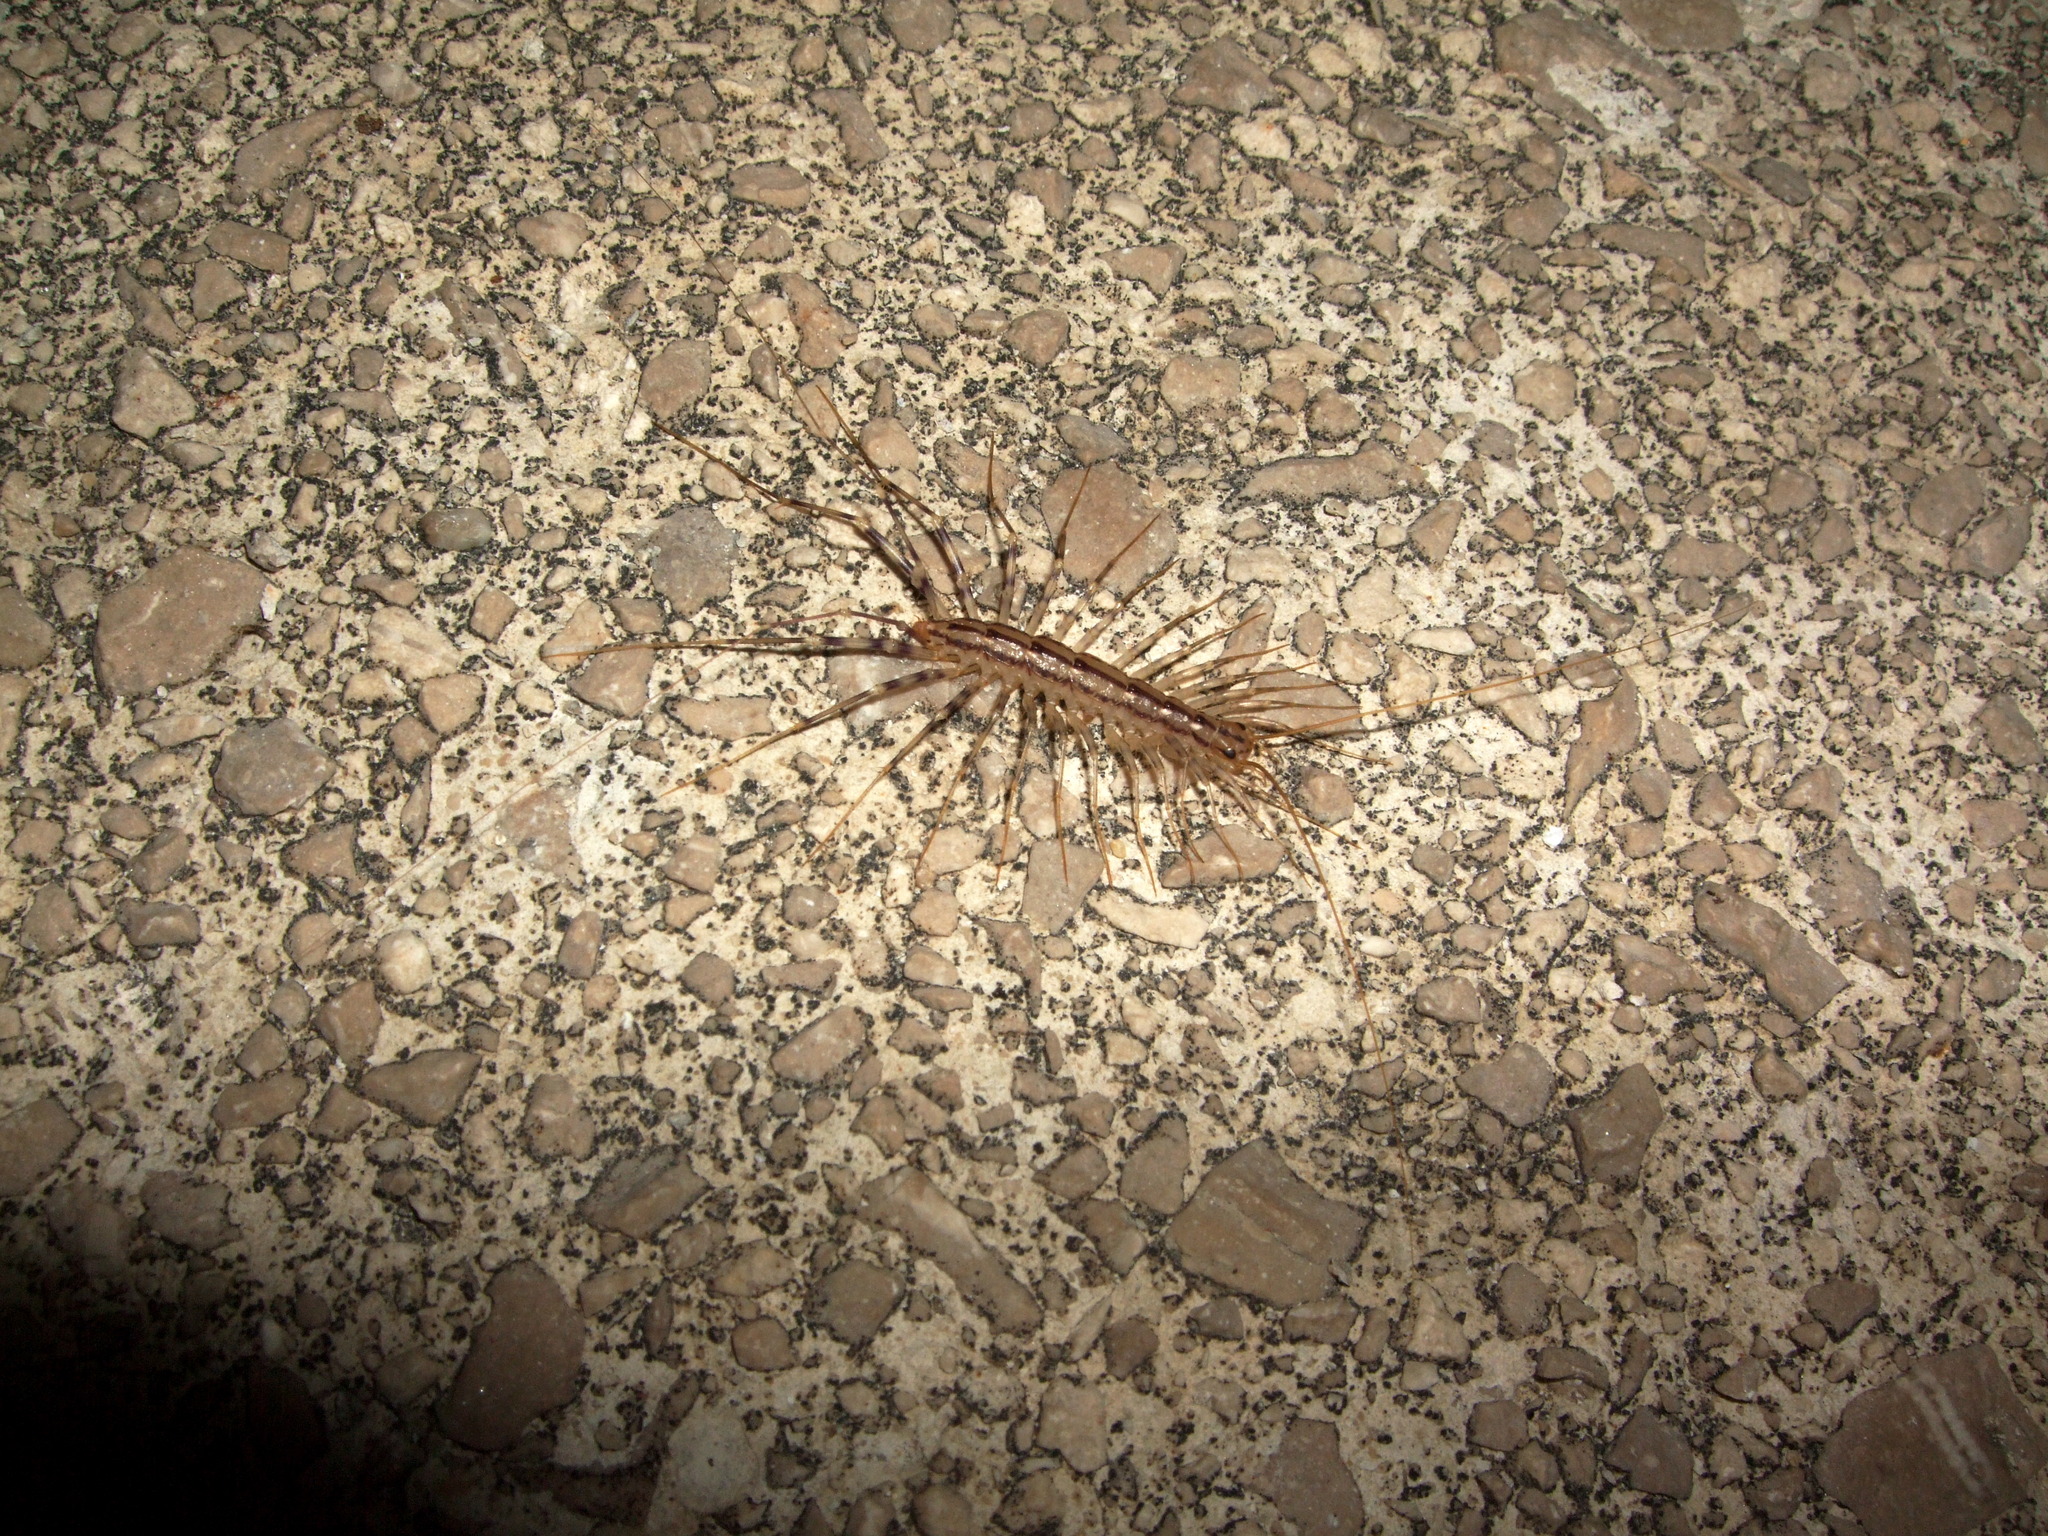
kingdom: Animalia
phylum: Arthropoda
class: Chilopoda
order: Scutigeromorpha
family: Scutigeridae
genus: Scutigera
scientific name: Scutigera coleoptrata
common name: House centipede
